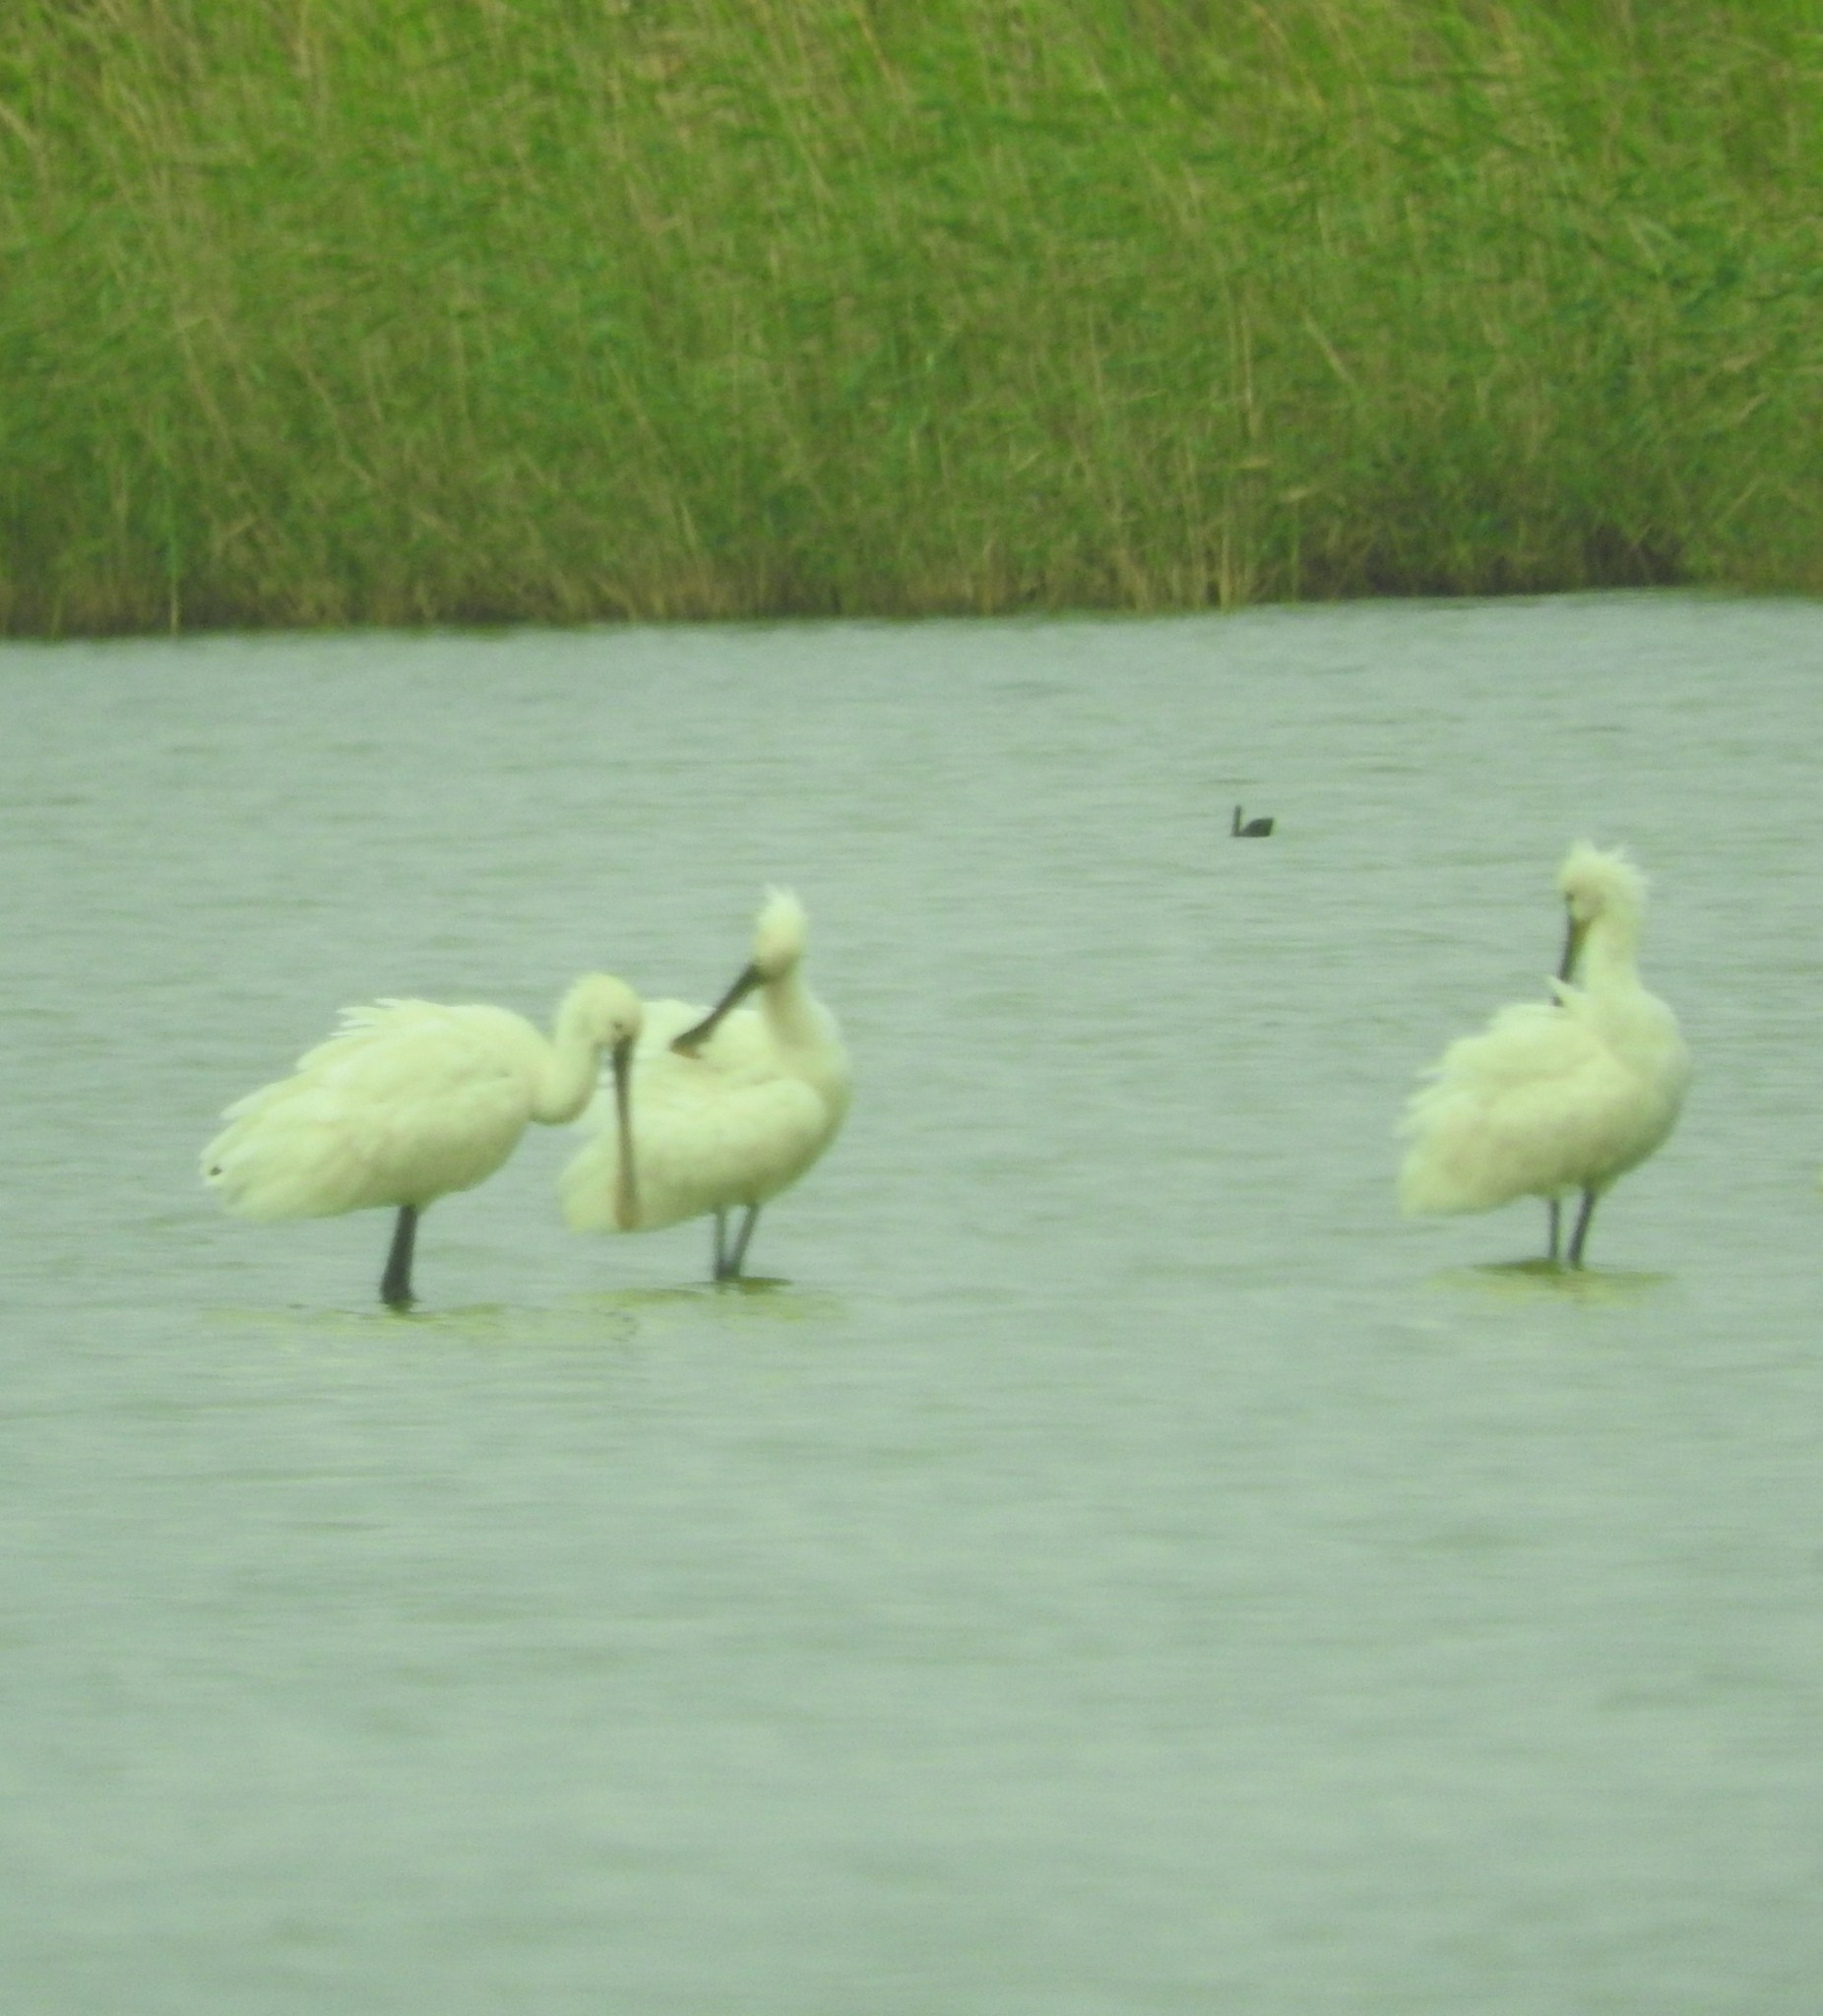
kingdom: Animalia
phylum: Chordata
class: Aves
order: Pelecaniformes
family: Threskiornithidae
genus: Platalea
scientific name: Platalea leucorodia
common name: Eurasian spoonbill
